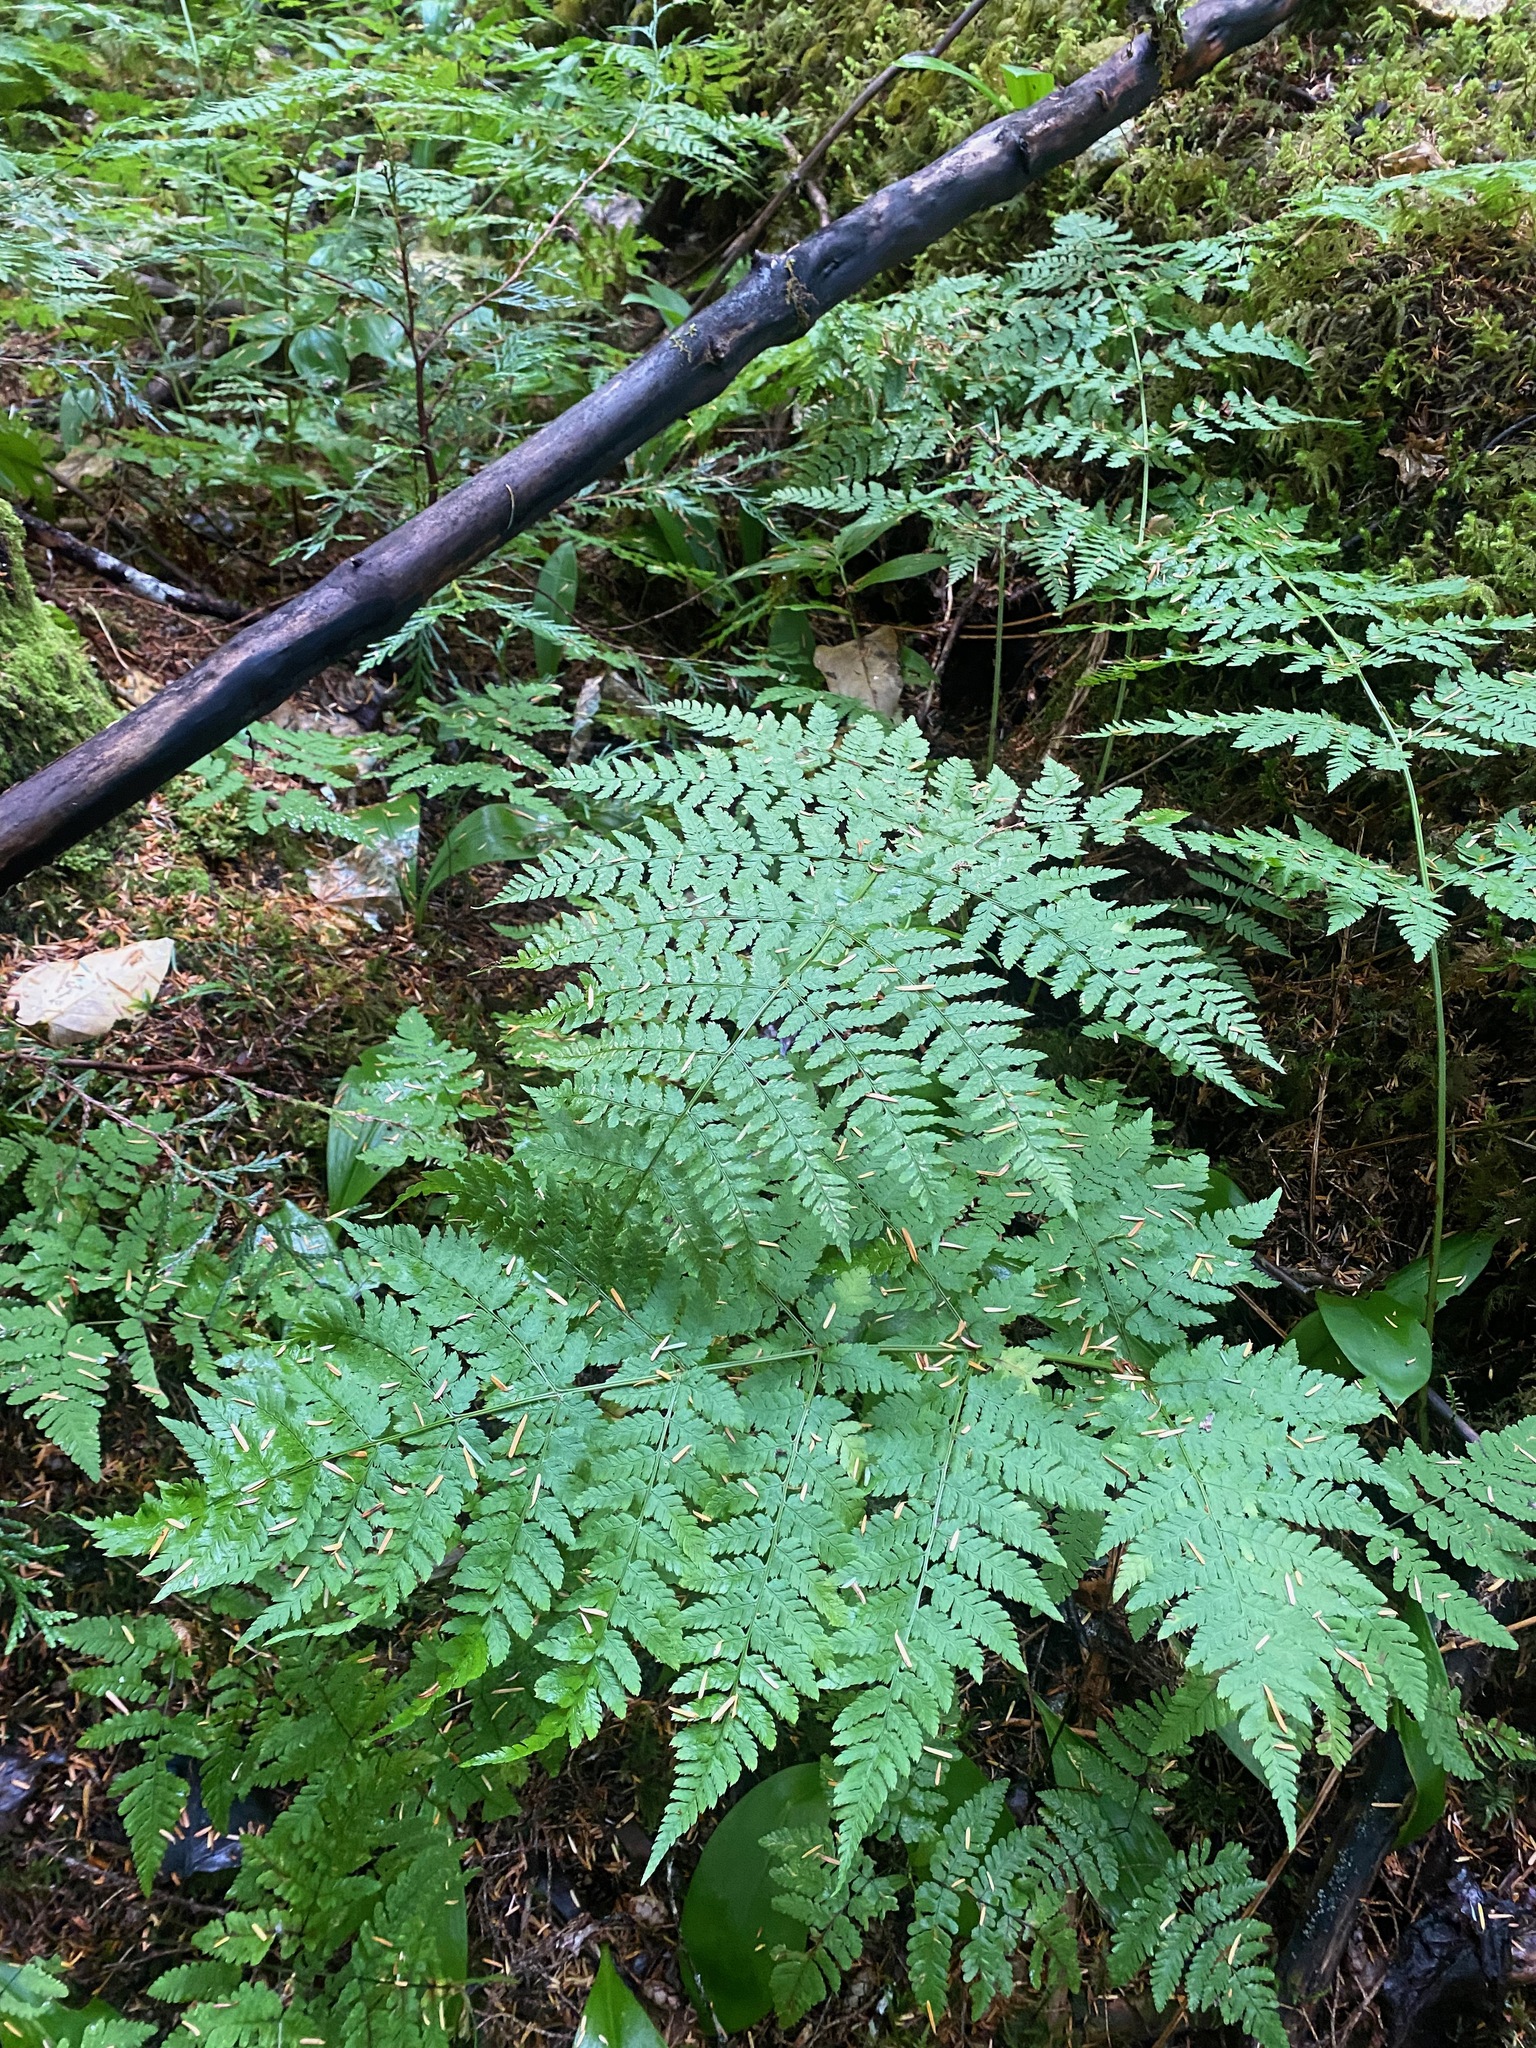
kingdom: Plantae
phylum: Tracheophyta
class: Polypodiopsida
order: Polypodiales
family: Dryopteridaceae
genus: Dryopteris
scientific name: Dryopteris expansa
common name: Northern buckler fern
